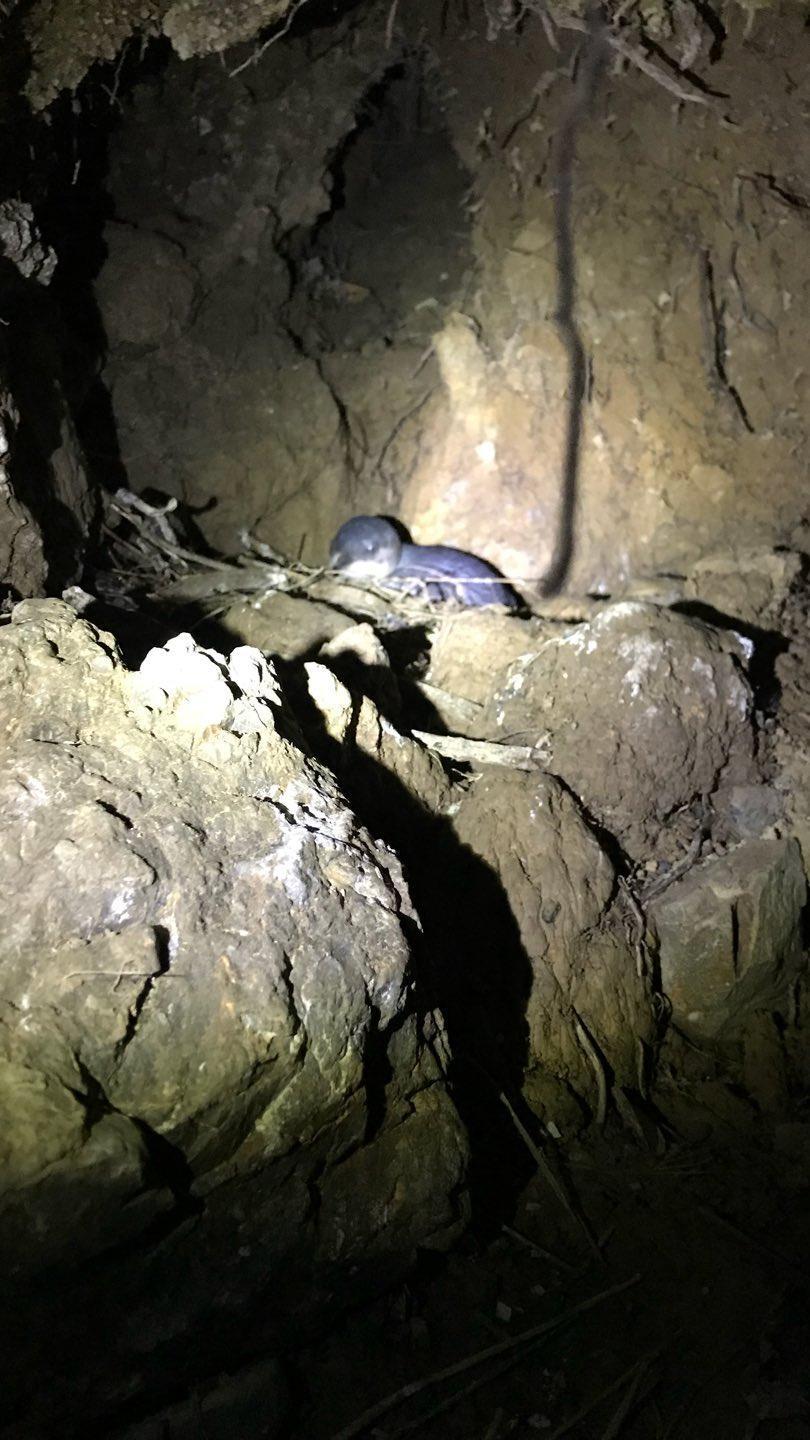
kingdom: Animalia
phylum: Chordata
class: Aves
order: Sphenisciformes
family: Spheniscidae
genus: Eudyptula
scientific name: Eudyptula minor
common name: Little penguin
